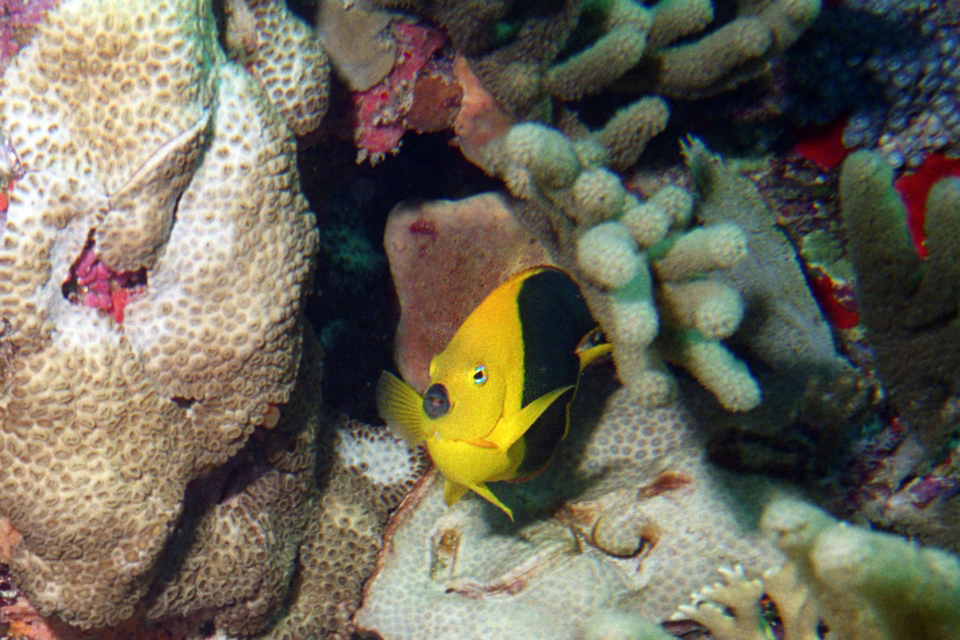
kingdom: Animalia
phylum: Chordata
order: Perciformes
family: Pomacanthidae
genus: Holacanthus
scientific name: Holacanthus tricolor
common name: Rock beauty
